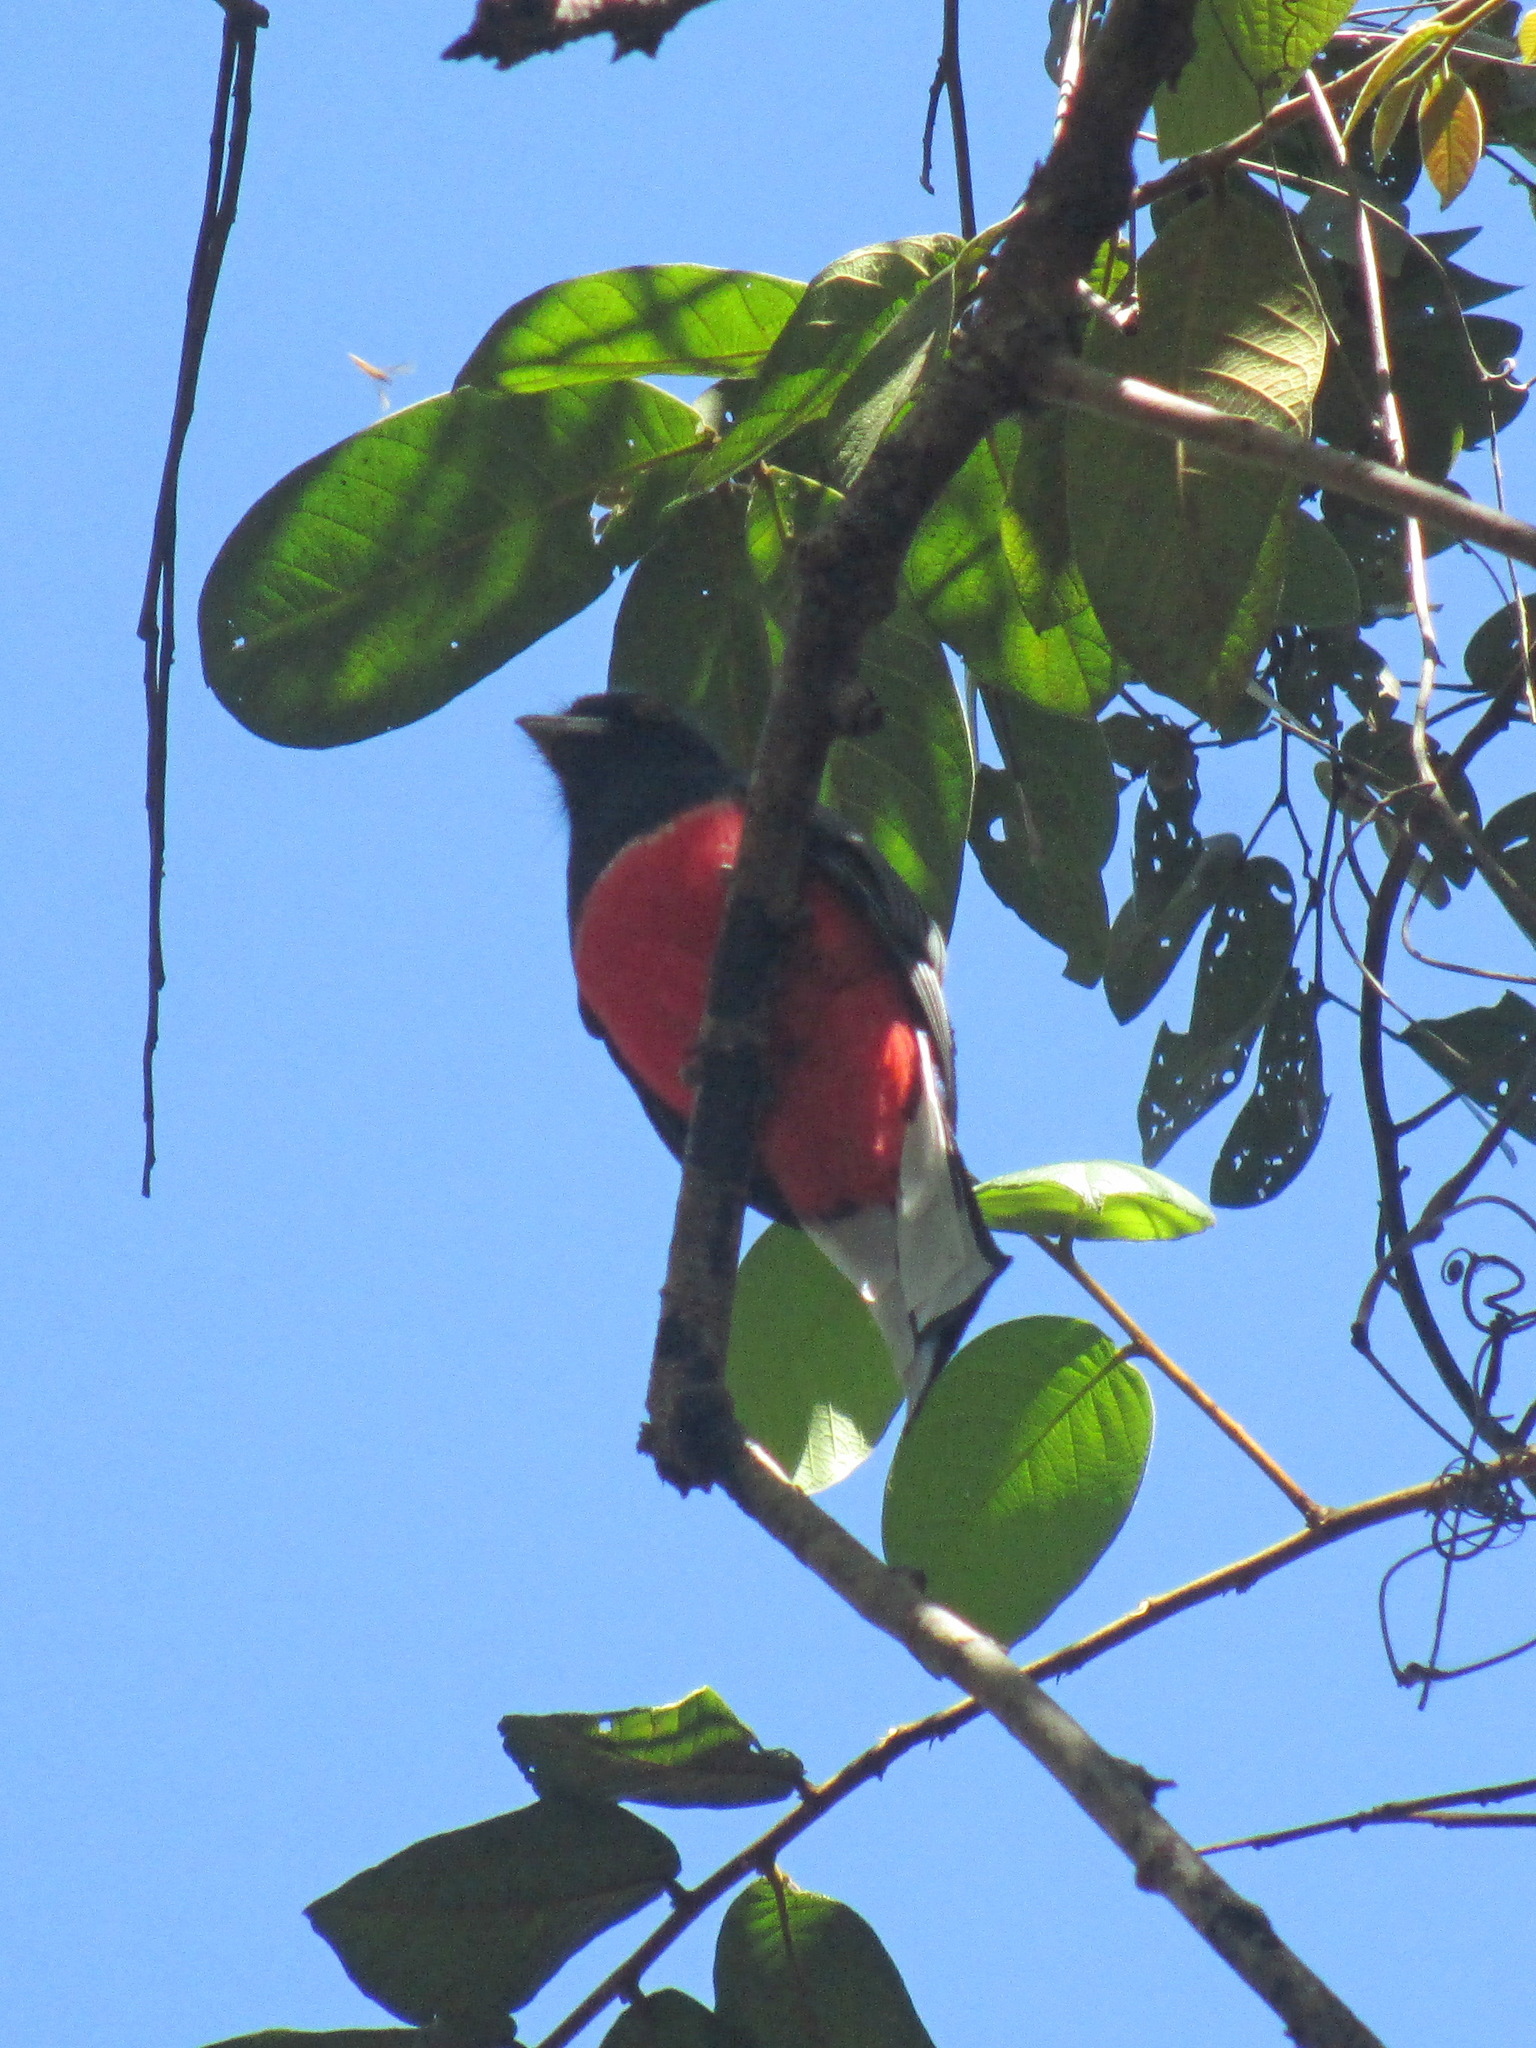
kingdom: Animalia
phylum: Chordata
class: Aves
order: Trogoniformes
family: Trogonidae
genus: Trogon
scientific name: Trogon surrucura
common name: Surucua trogon
